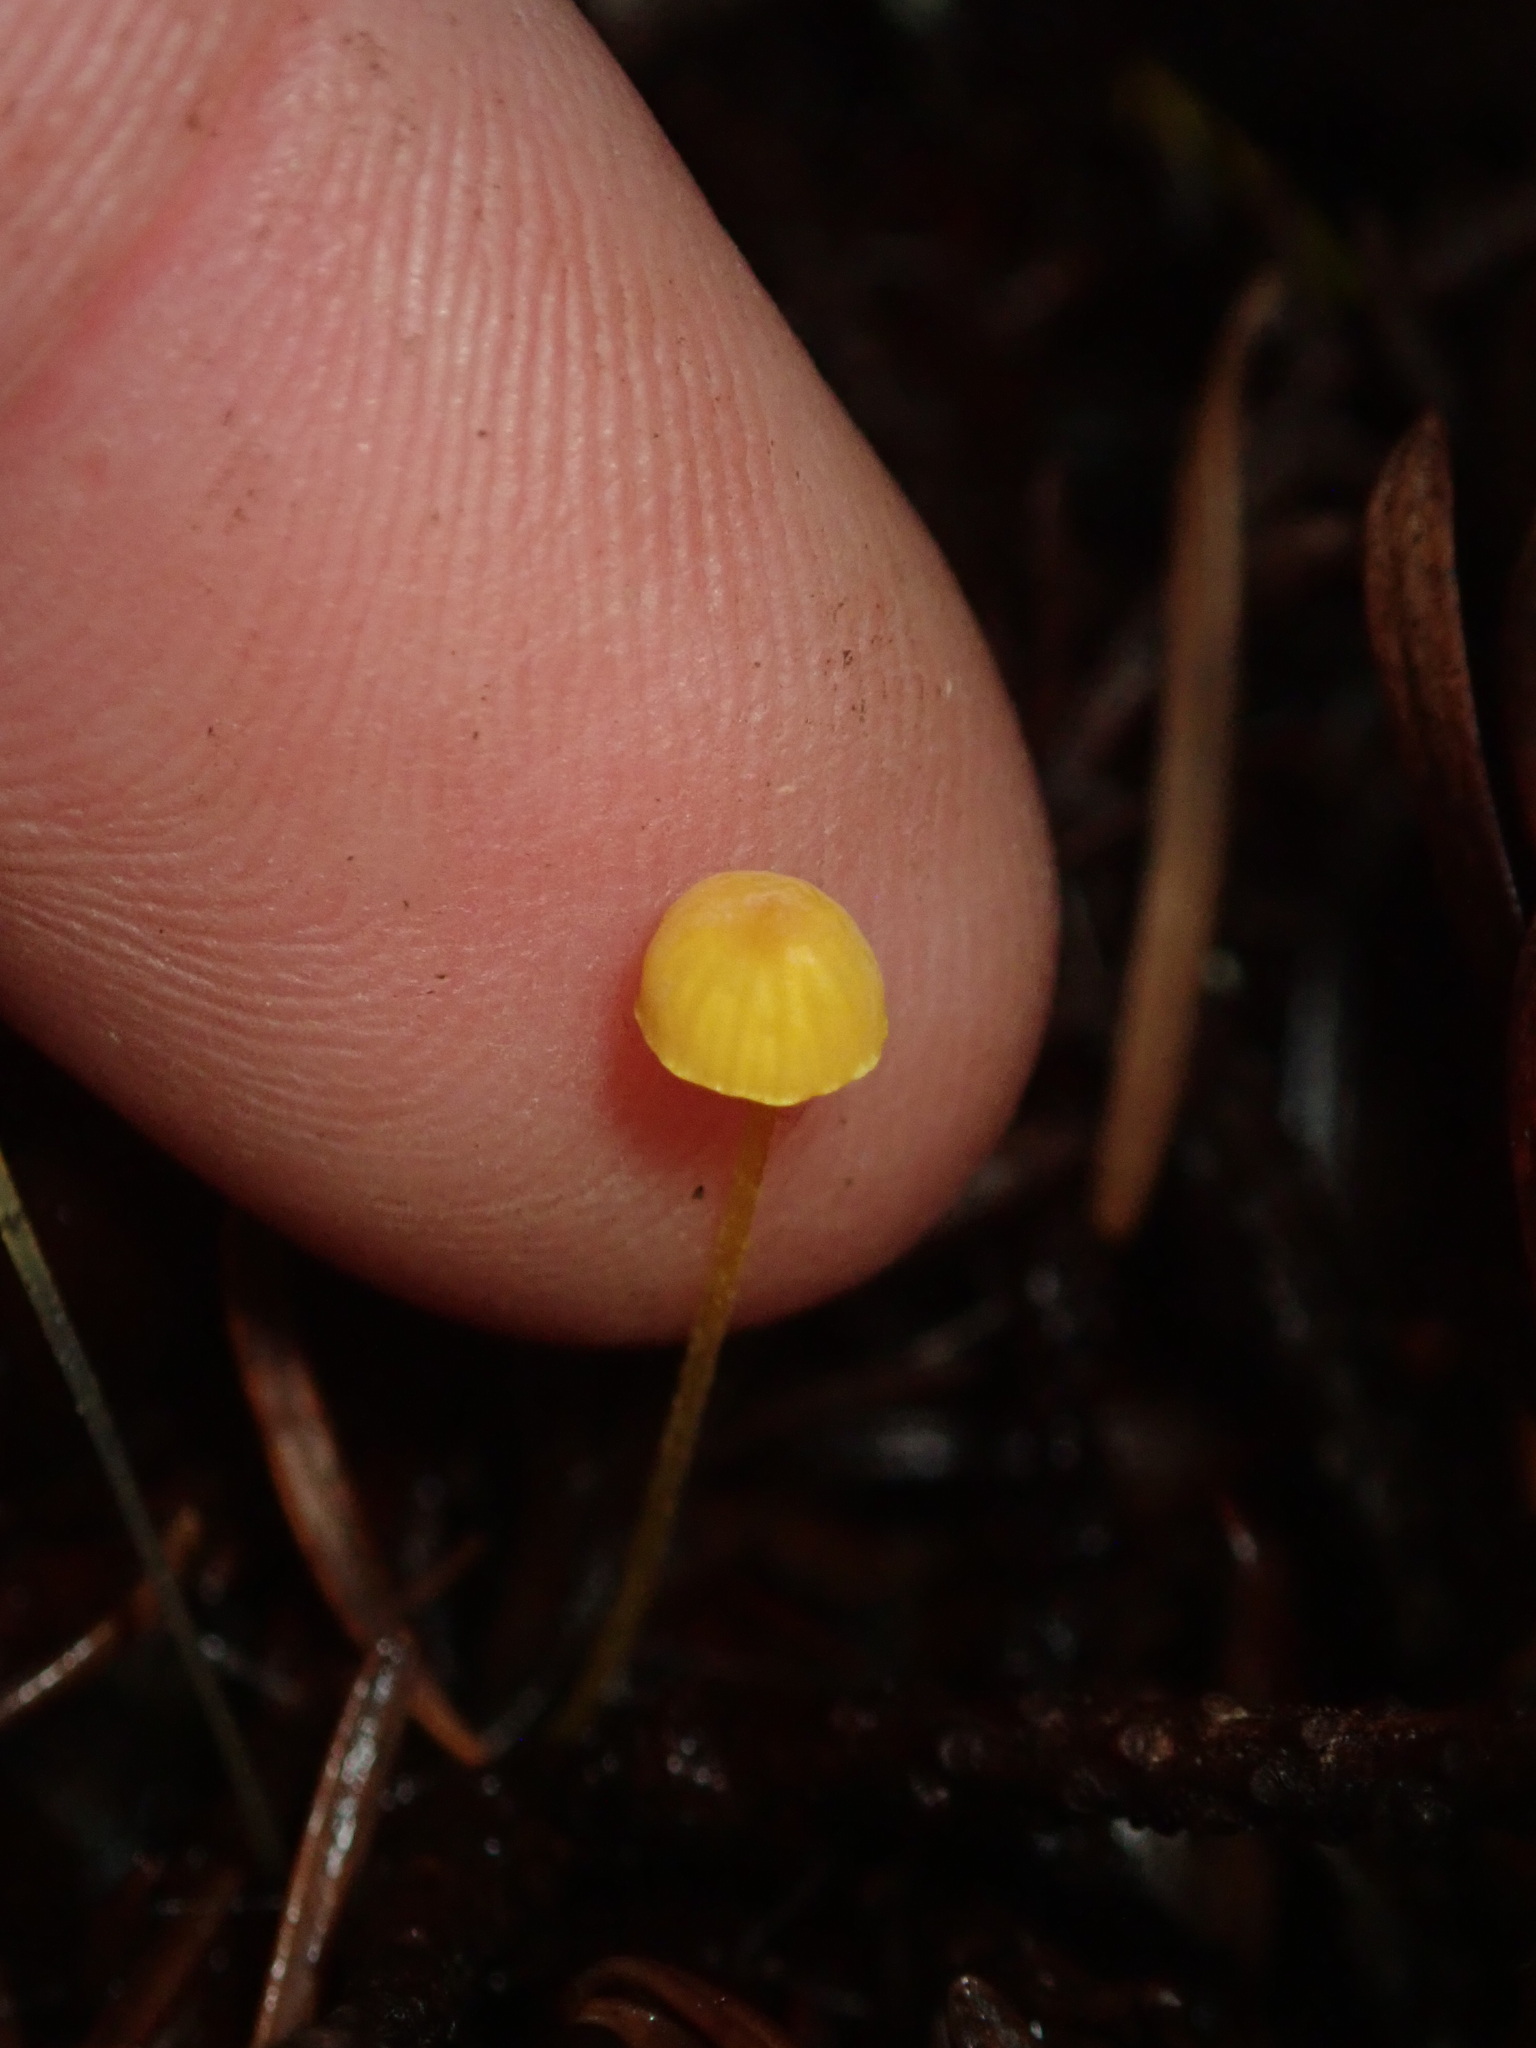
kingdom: Fungi
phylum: Basidiomycota
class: Agaricomycetes
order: Agaricales
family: Mycenaceae
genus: Mycena
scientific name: Mycena oregonensis
